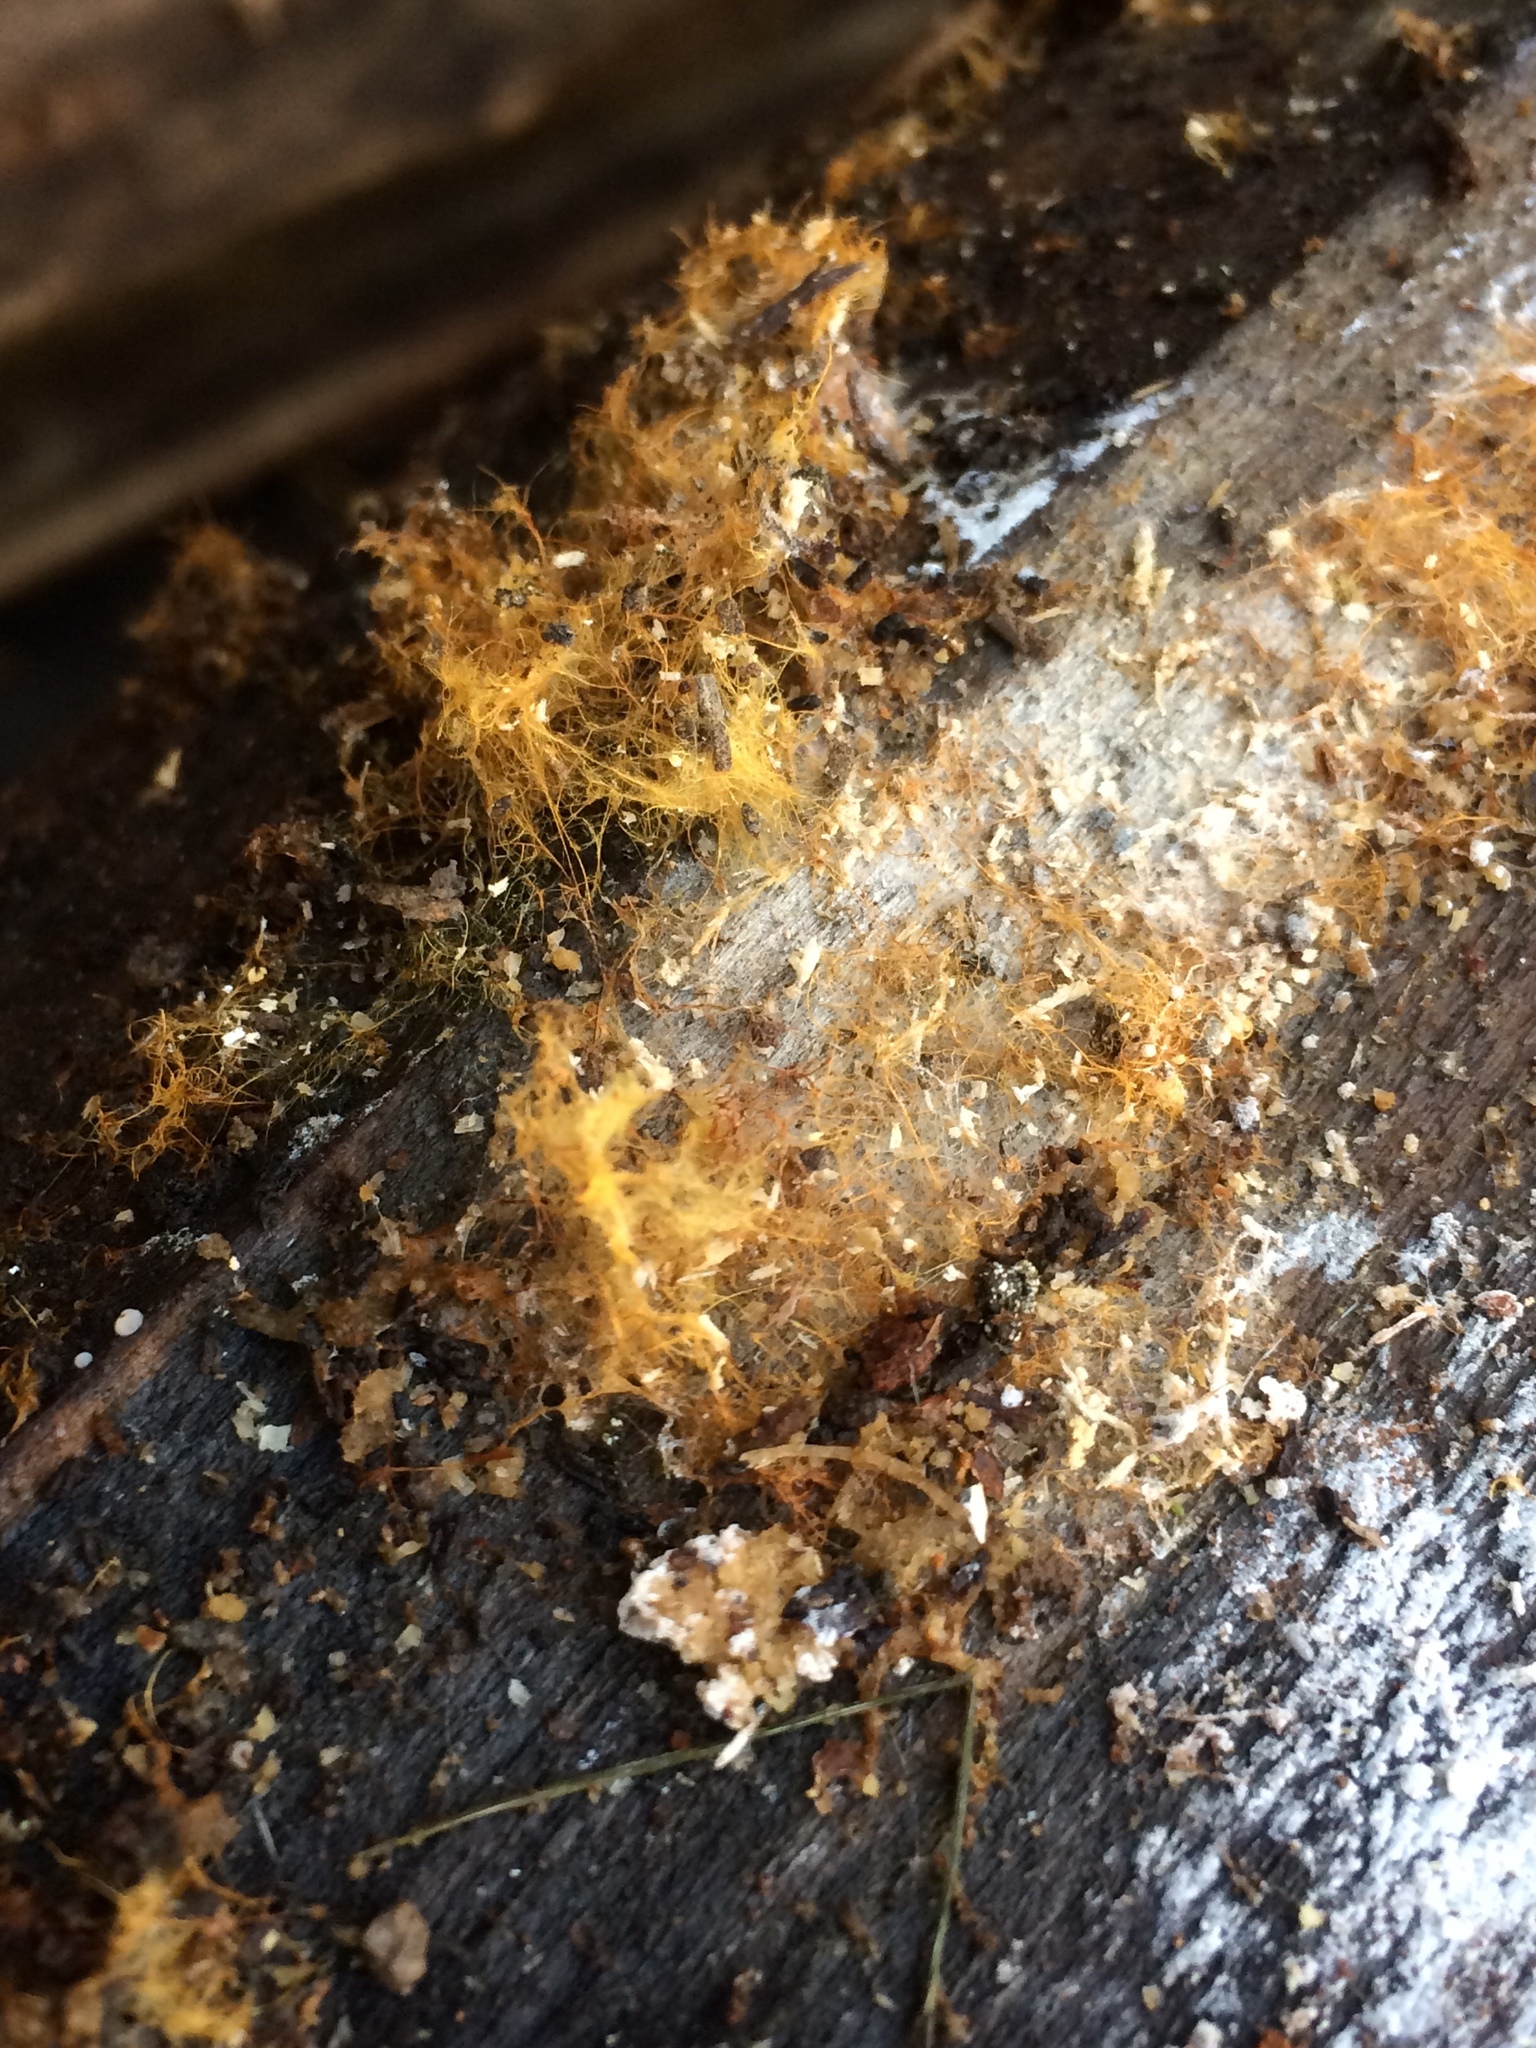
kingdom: Fungi
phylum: Basidiomycota
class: Agaricomycetes
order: Agaricales
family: Psathyrellaceae
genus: Coprinellus
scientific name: Coprinellus radians
